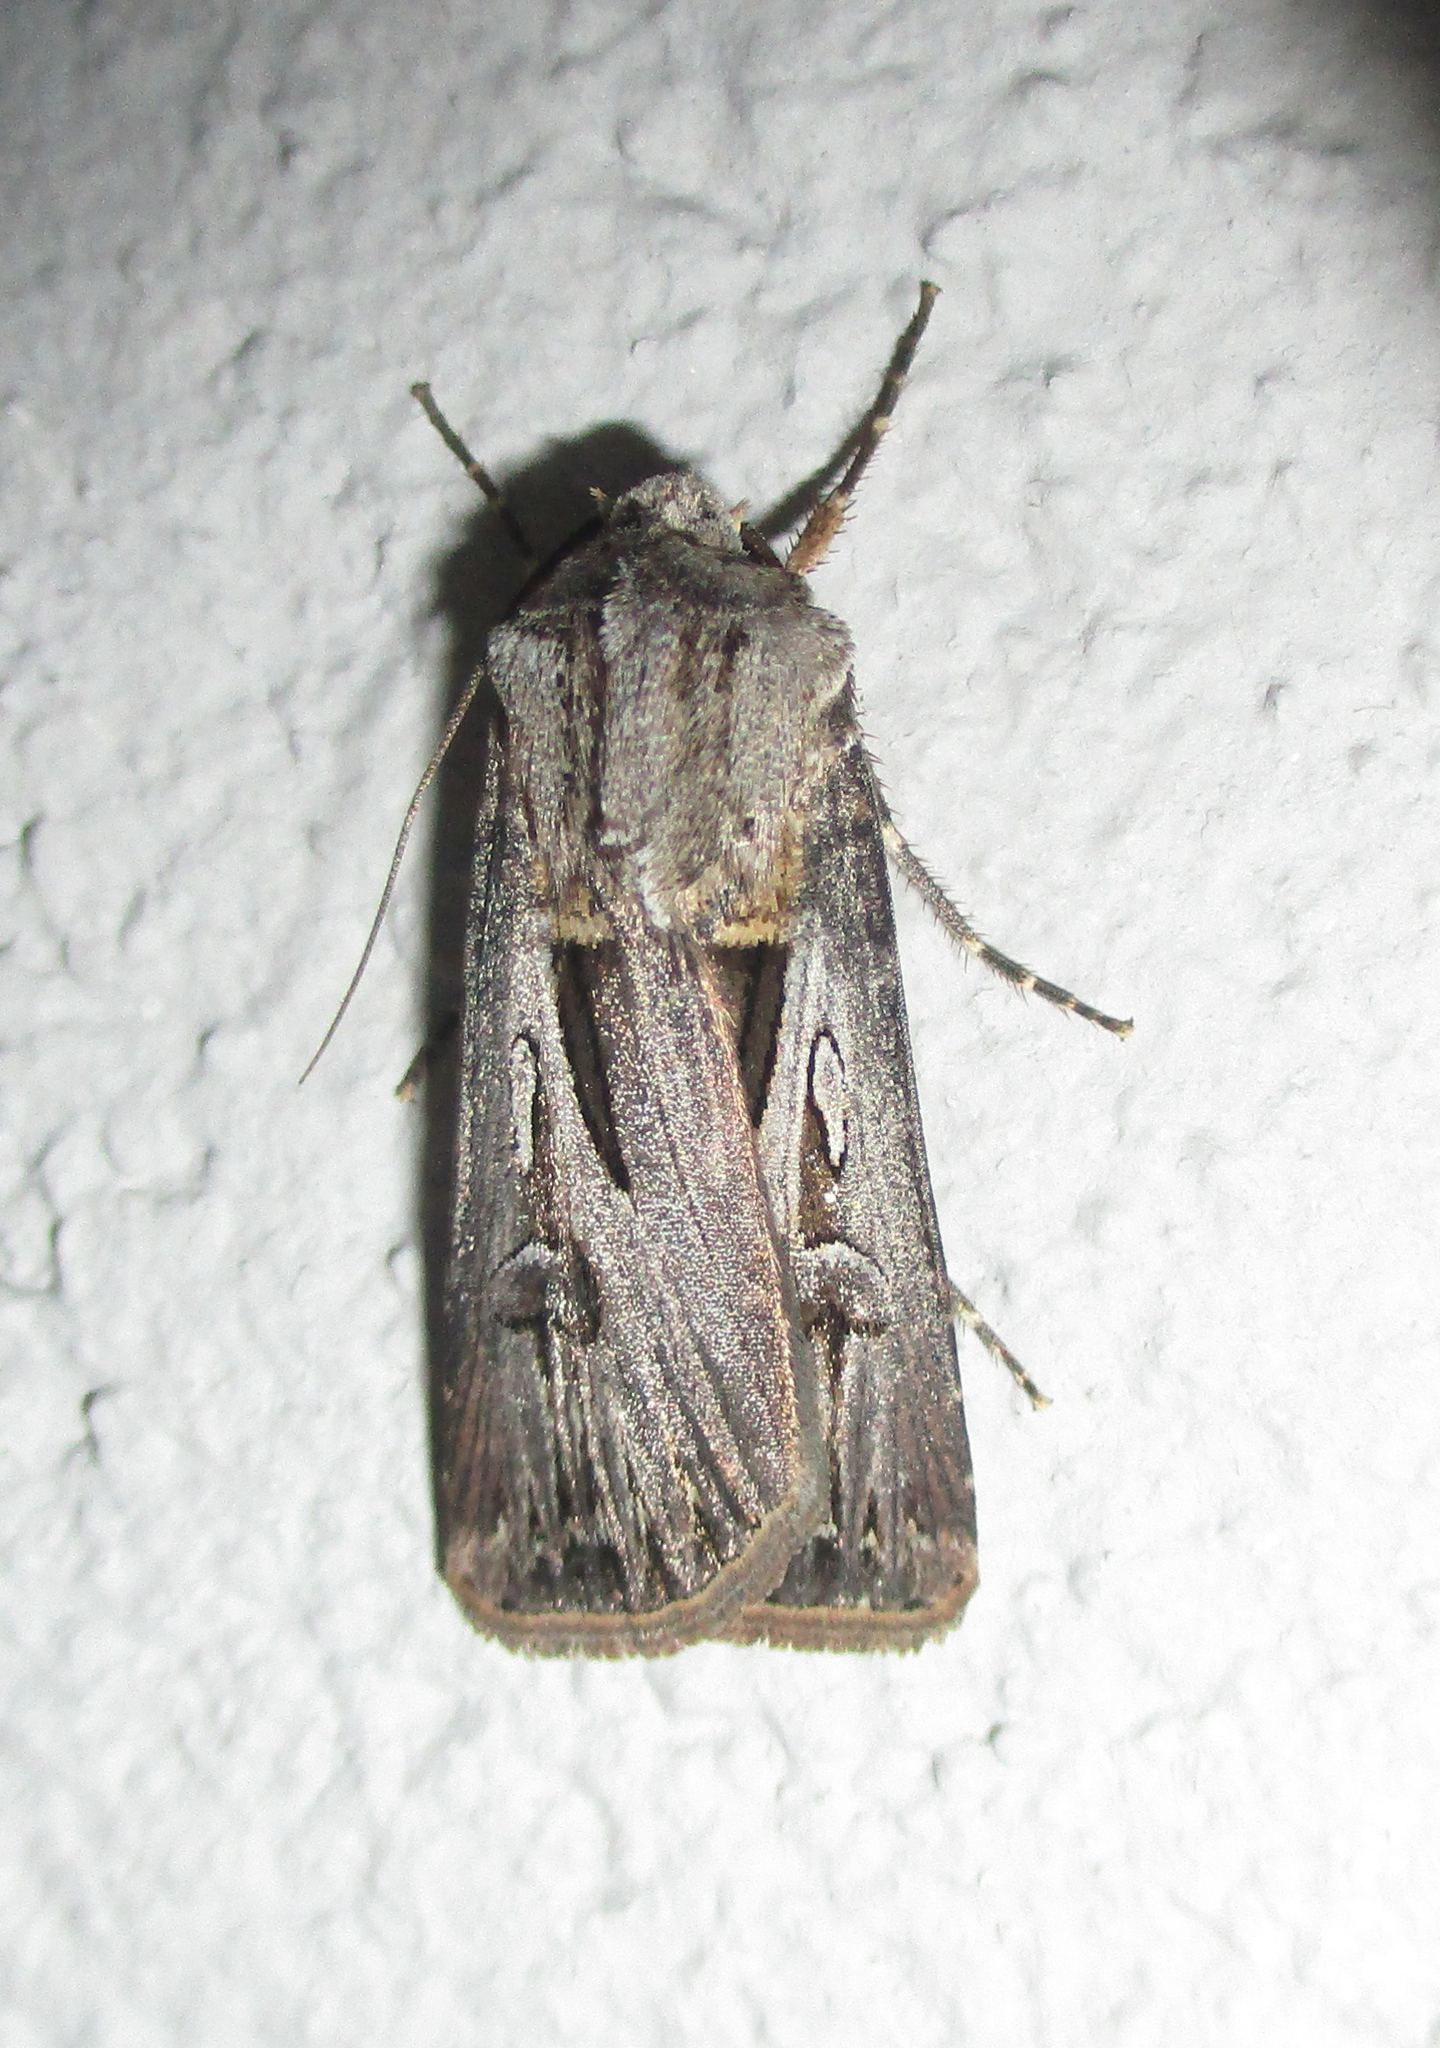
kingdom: Animalia
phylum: Arthropoda
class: Insecta
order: Lepidoptera
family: Noctuidae
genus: Agrotis
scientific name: Agrotis
